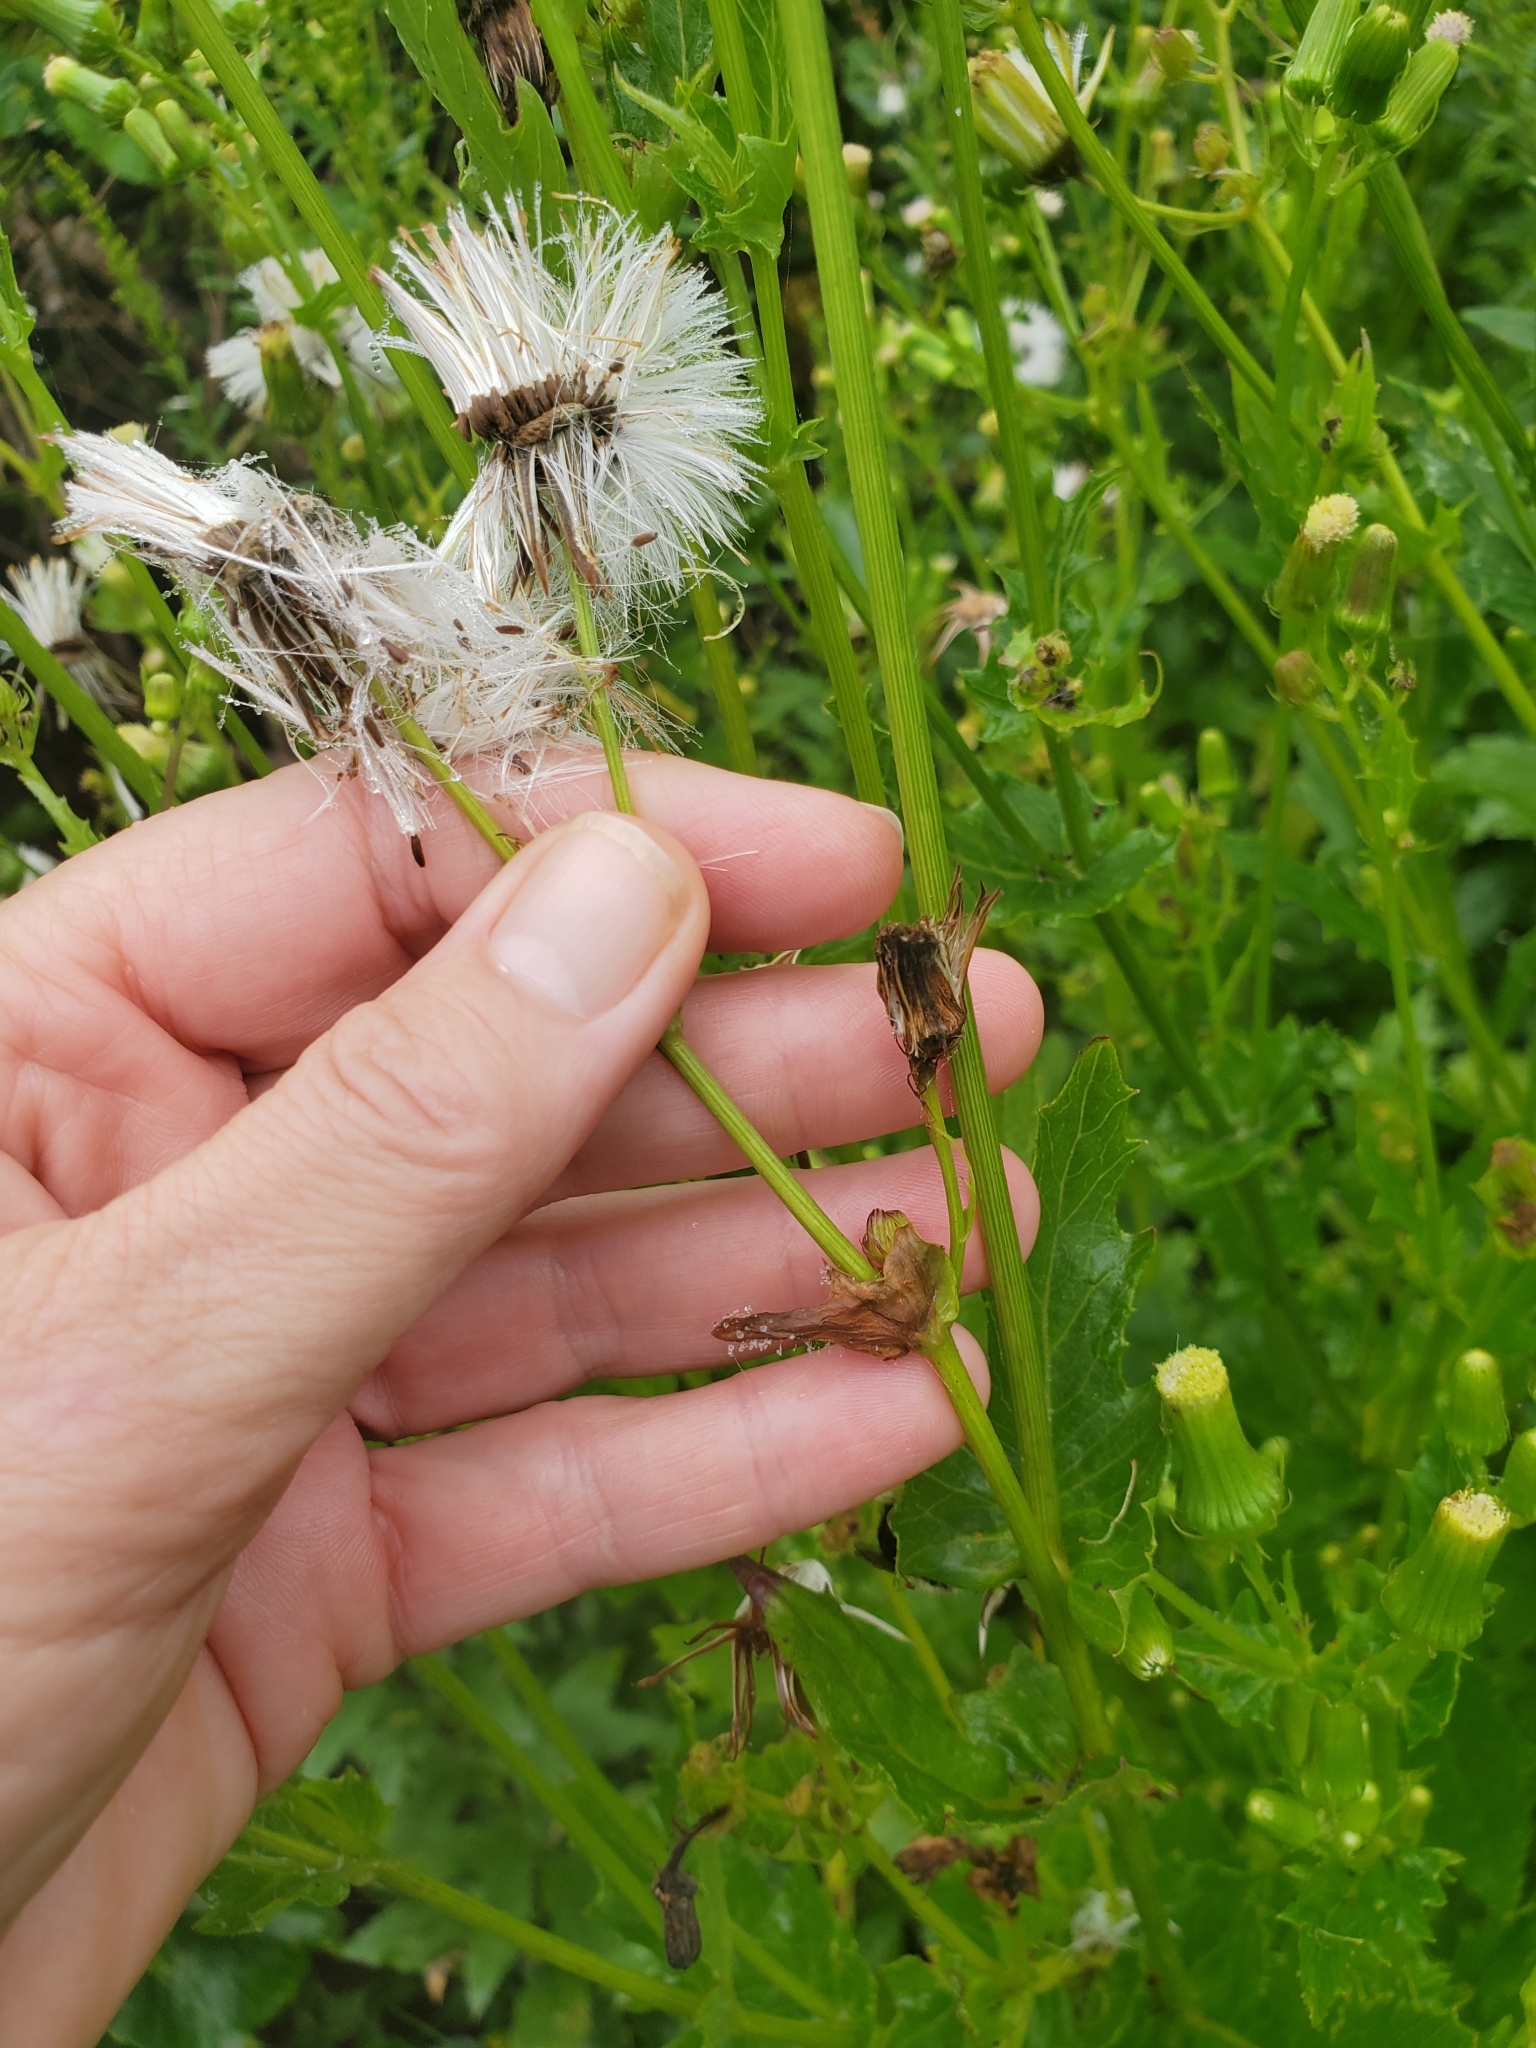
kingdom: Plantae
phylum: Tracheophyta
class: Magnoliopsida
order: Asterales
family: Asteraceae
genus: Erechtites
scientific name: Erechtites hieraciifolius
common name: American burnweed
